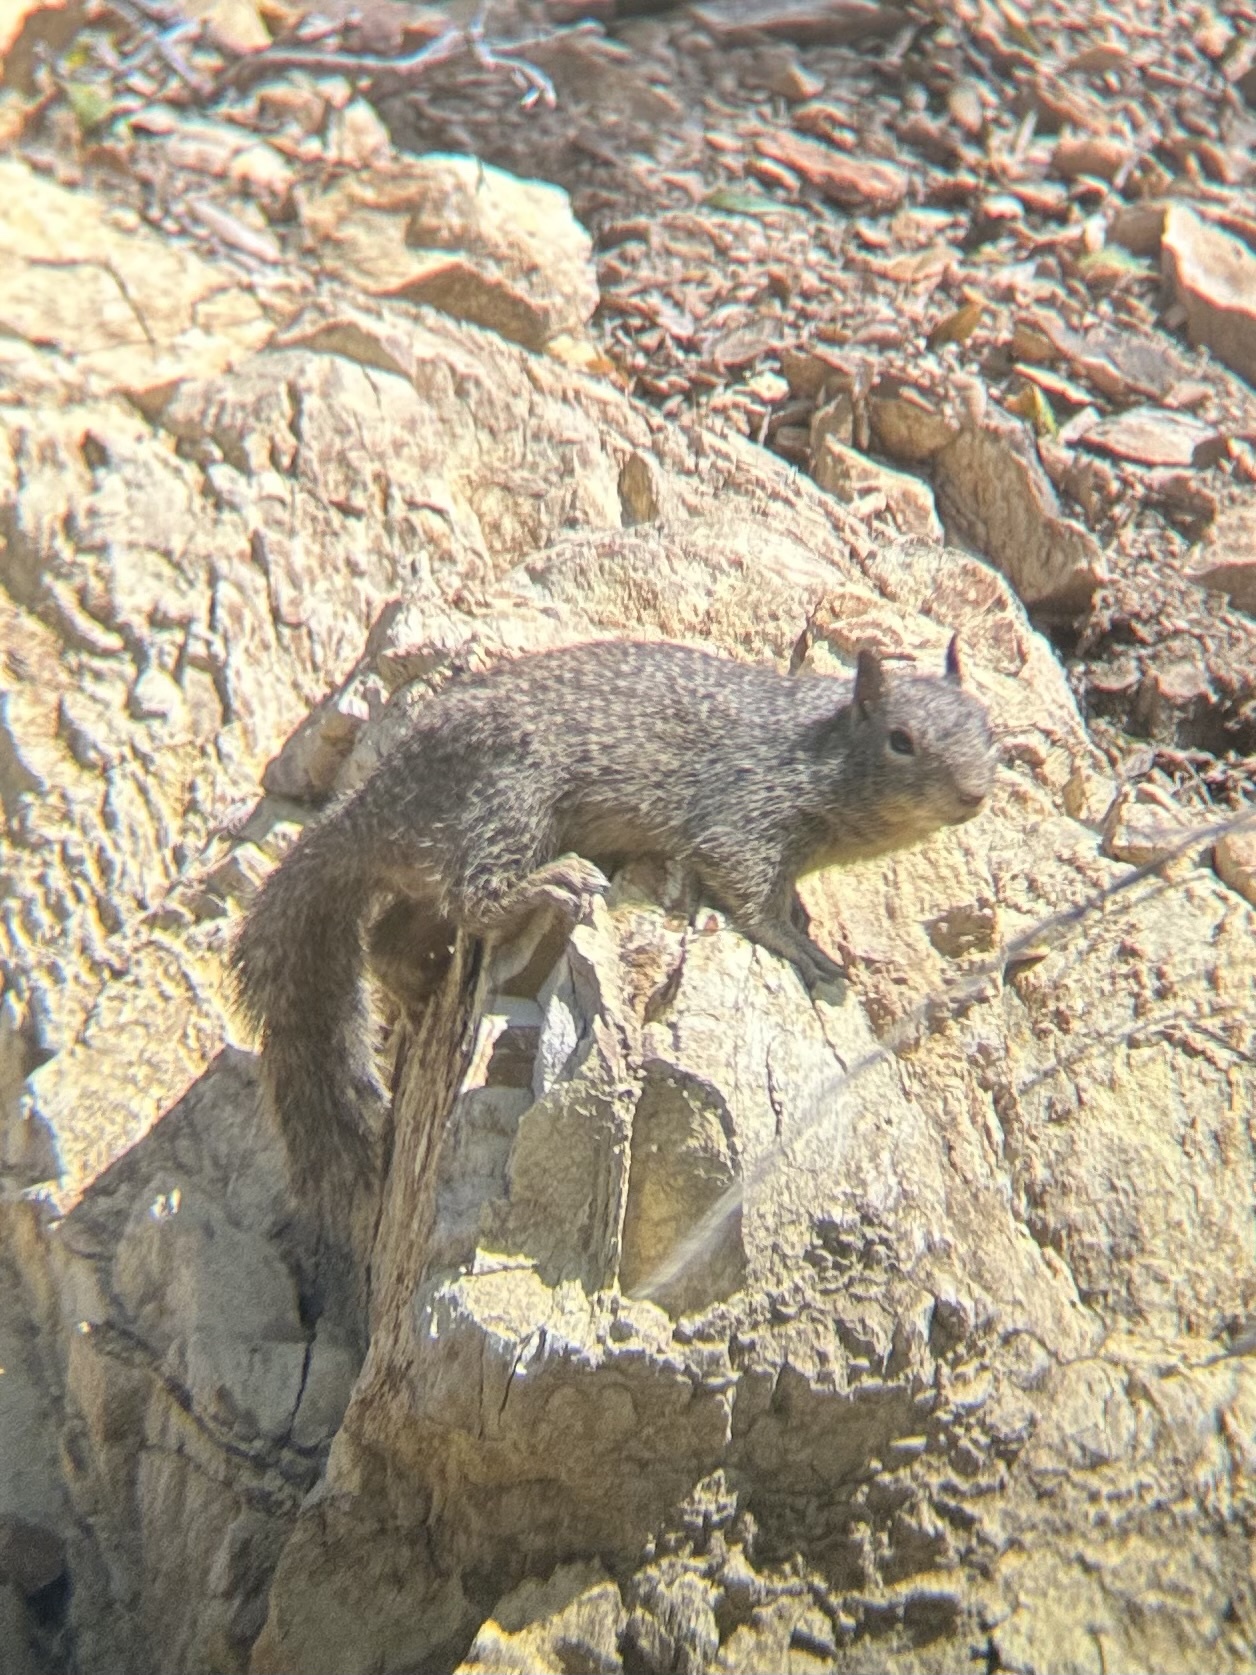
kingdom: Animalia
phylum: Chordata
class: Mammalia
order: Rodentia
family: Sciuridae
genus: Otospermophilus
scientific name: Otospermophilus beecheyi
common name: California ground squirrel
